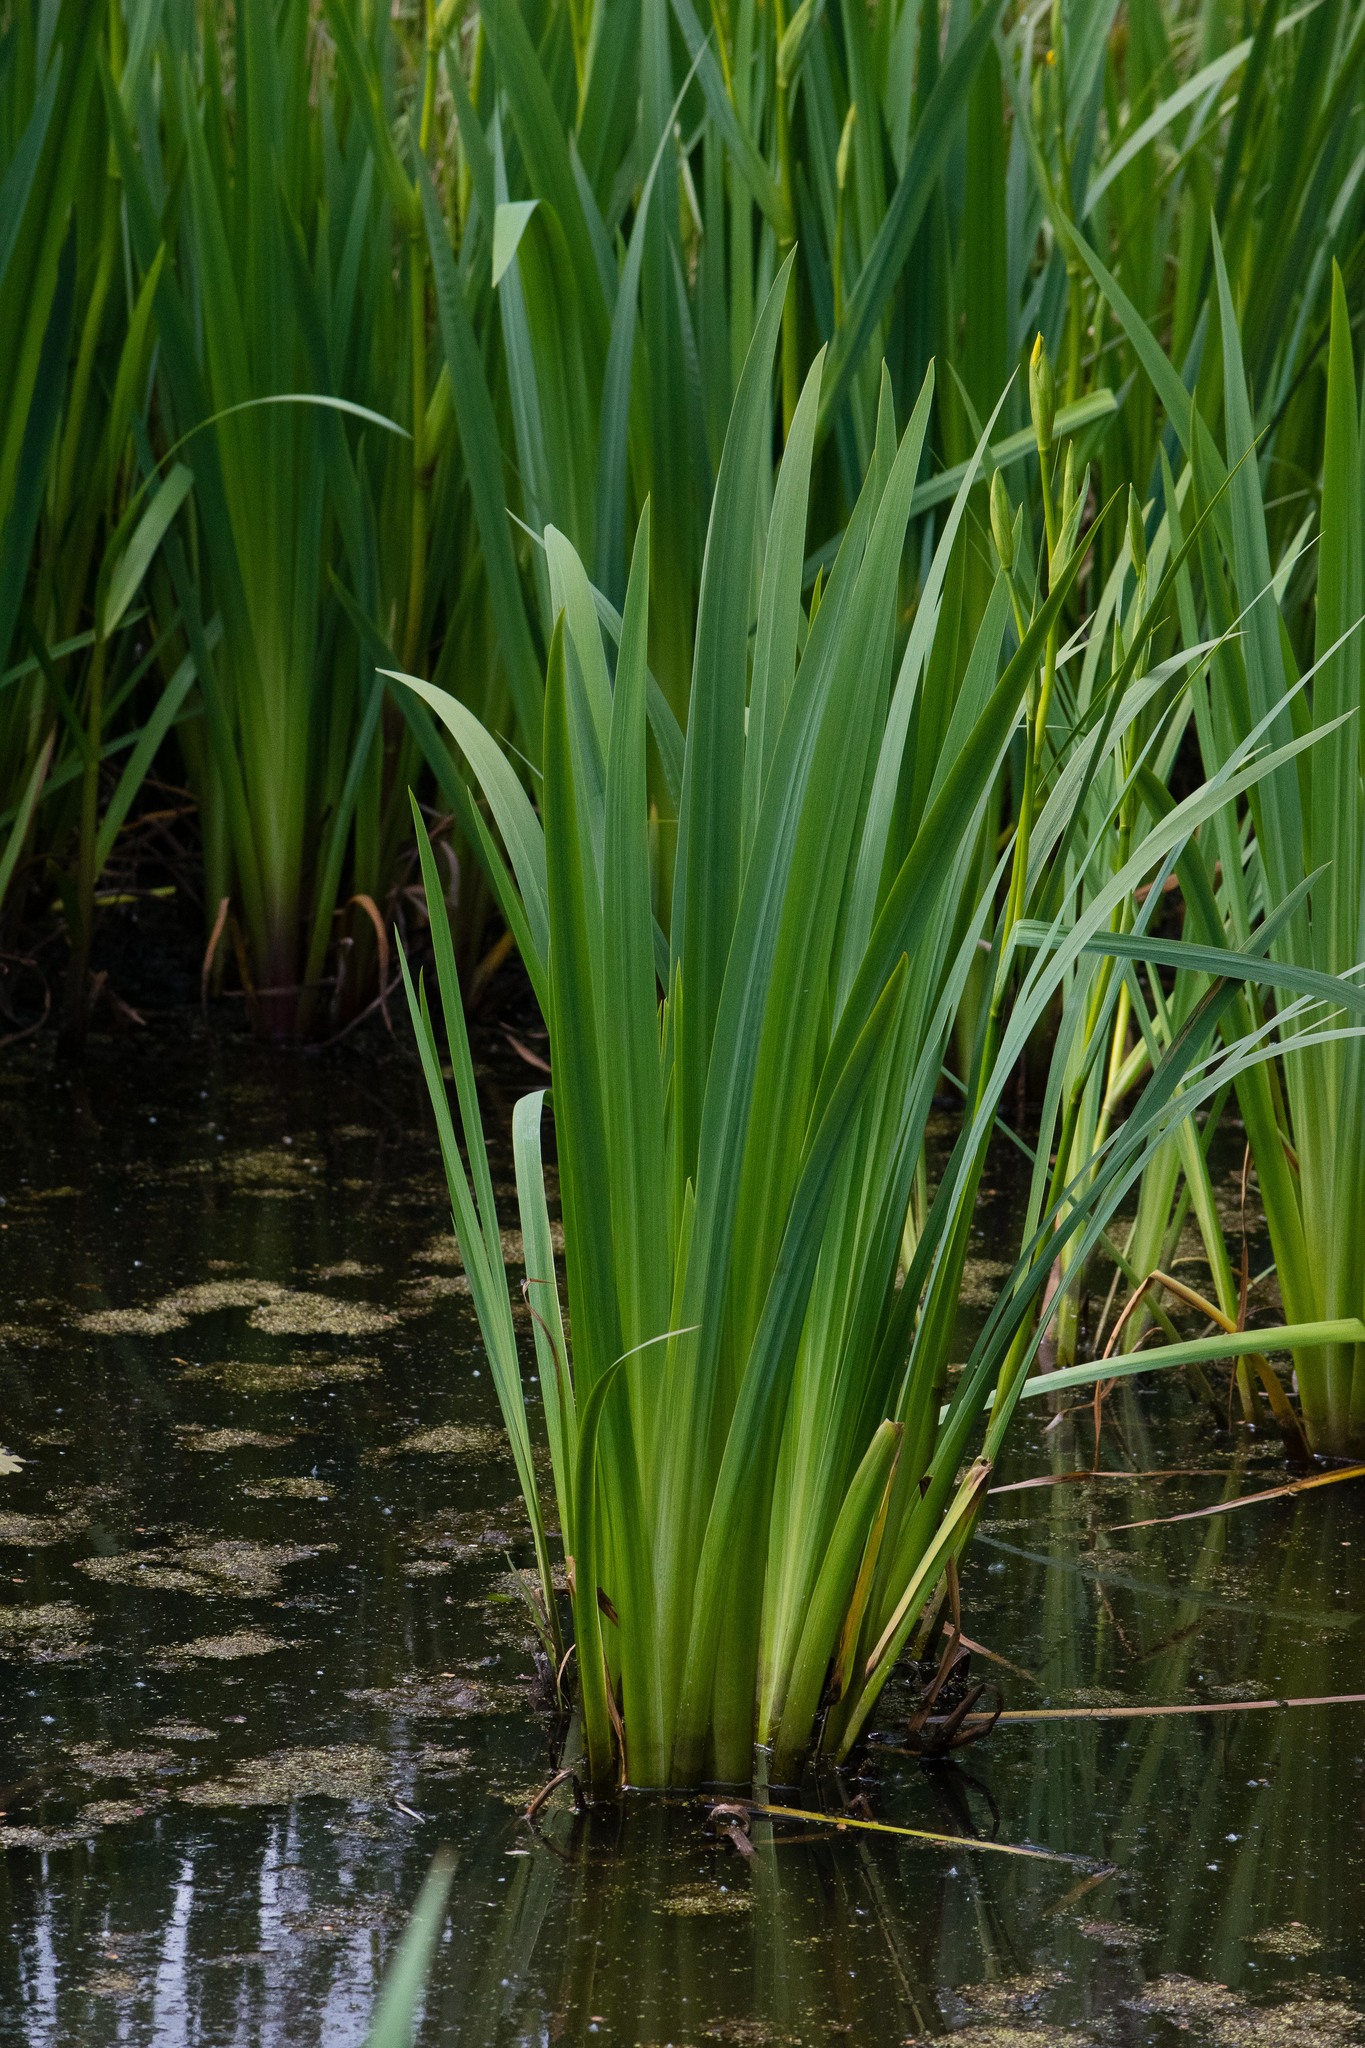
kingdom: Plantae
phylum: Tracheophyta
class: Liliopsida
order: Asparagales
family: Iridaceae
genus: Iris
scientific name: Iris pseudacorus
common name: Yellow flag
